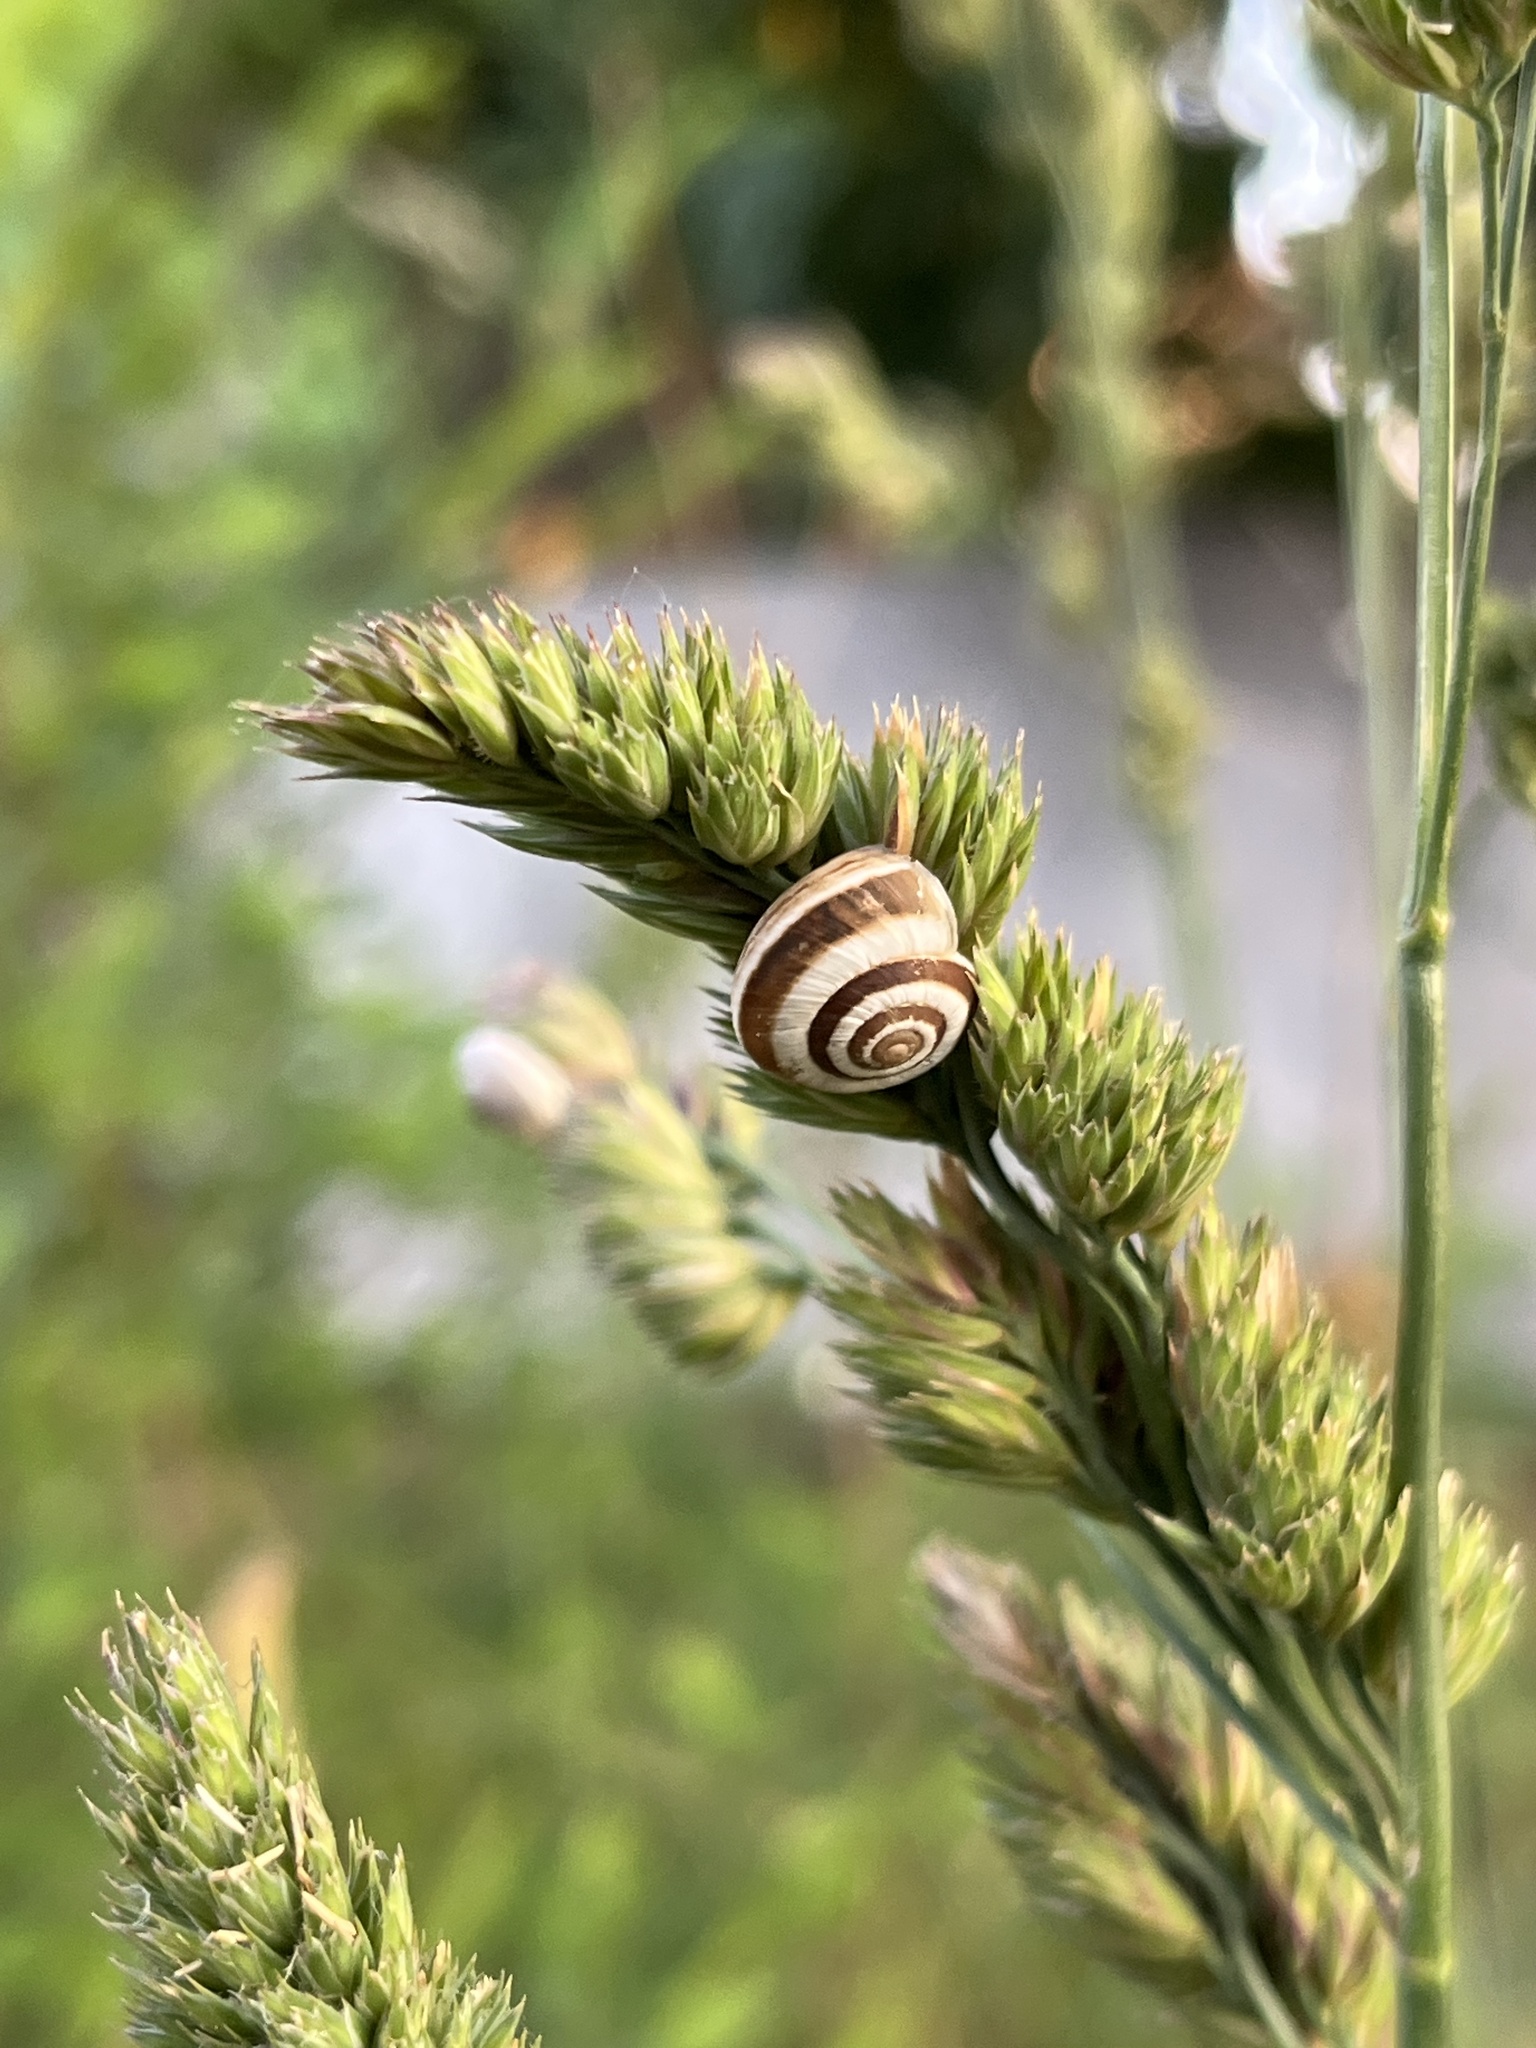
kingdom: Animalia
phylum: Mollusca
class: Gastropoda
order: Stylommatophora
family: Geomitridae
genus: Cernuella
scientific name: Cernuella virgata
